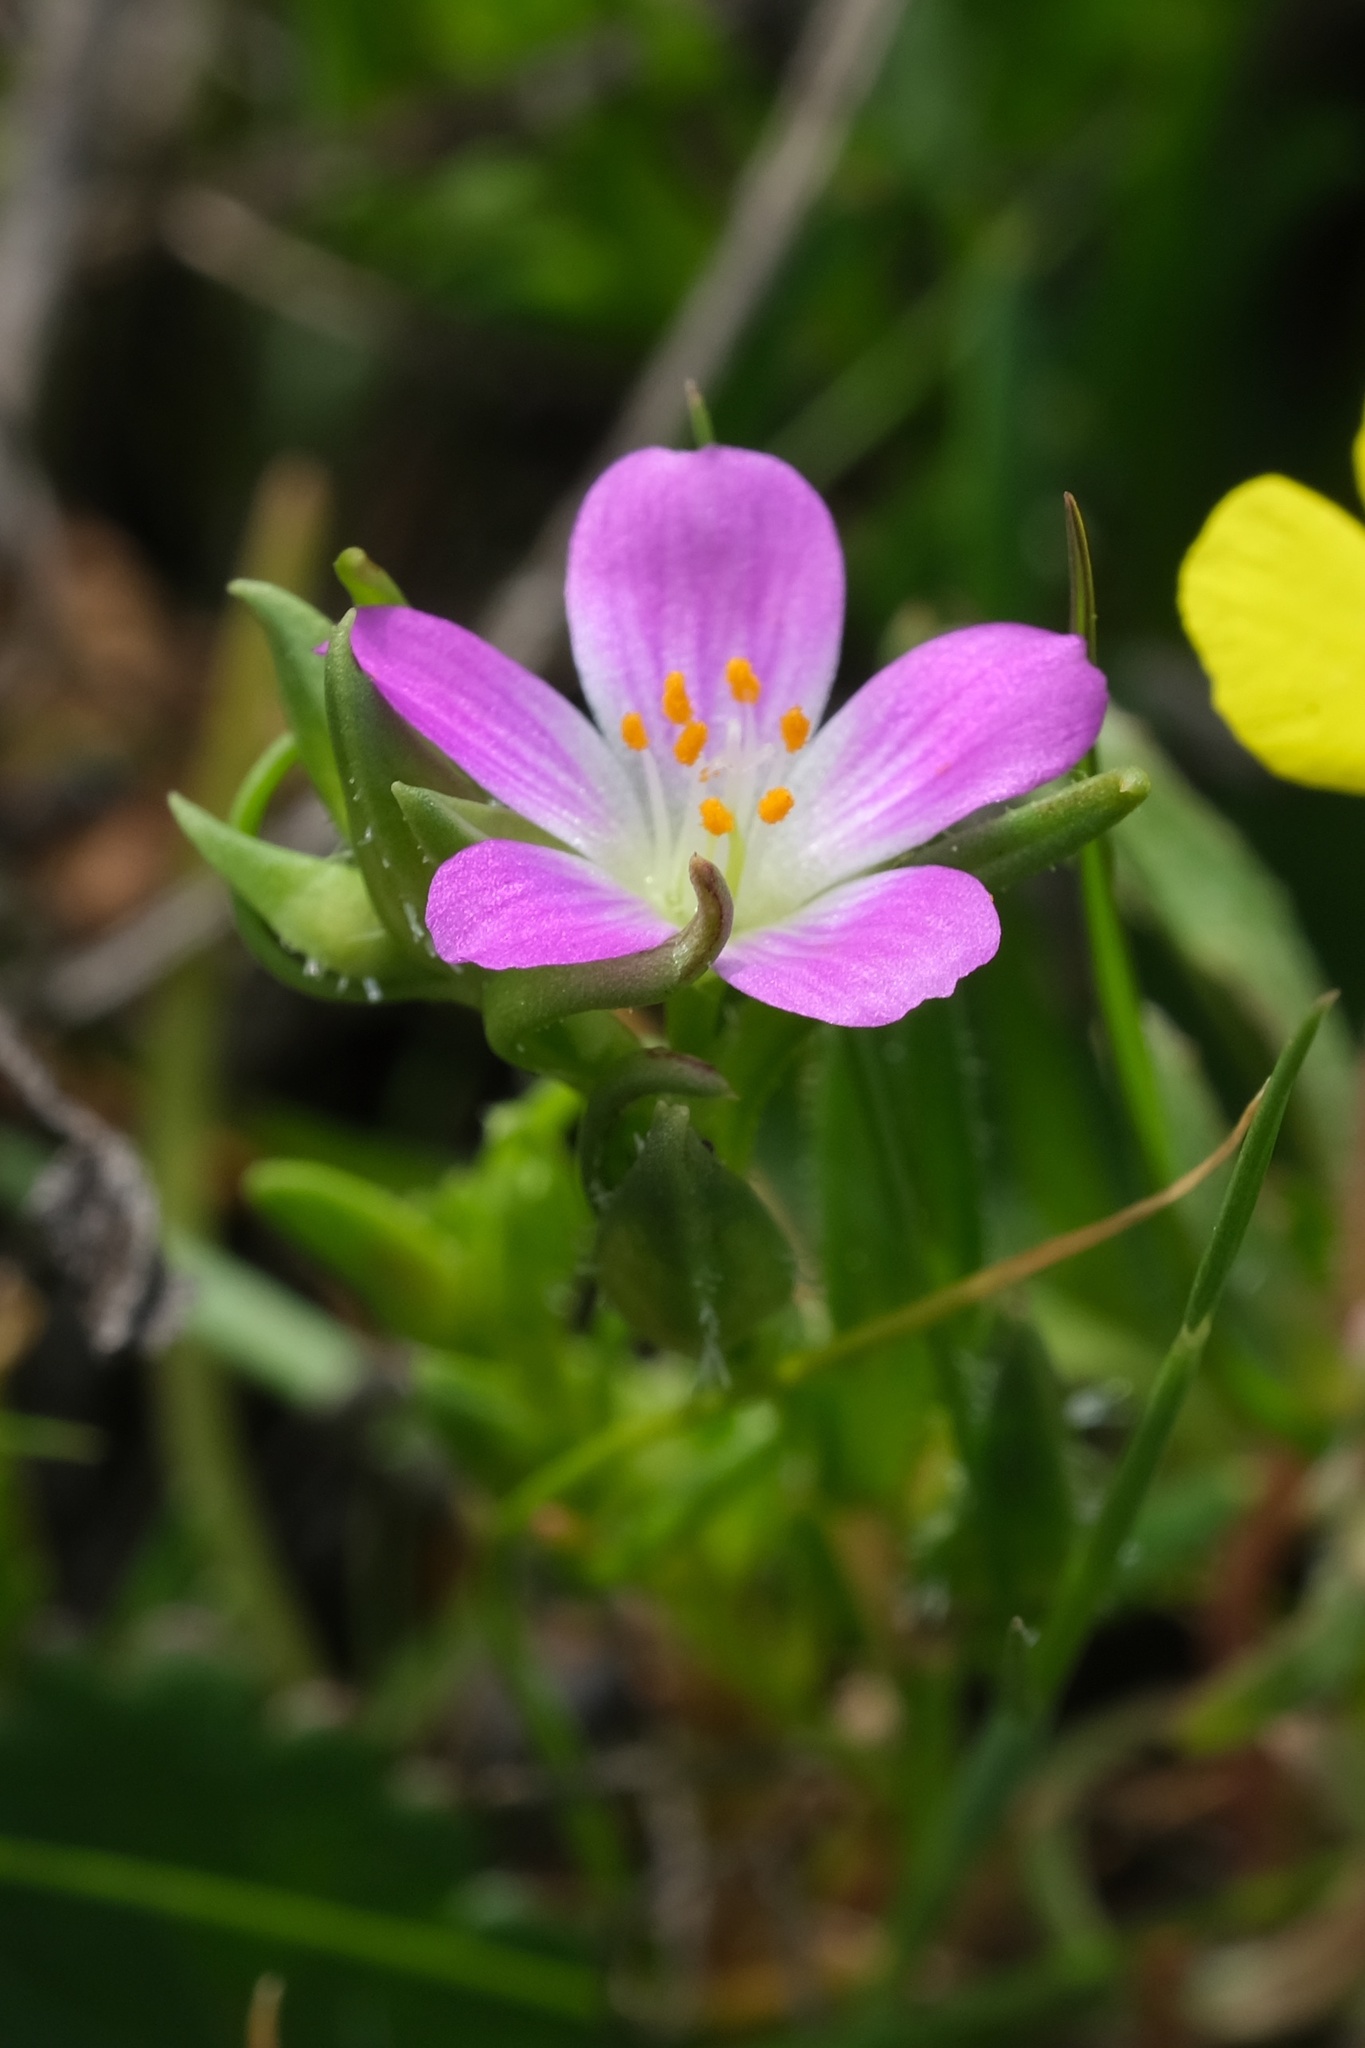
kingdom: Plantae
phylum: Tracheophyta
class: Magnoliopsida
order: Caryophyllales
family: Montiaceae
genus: Calandrinia
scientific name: Calandrinia menziesii
